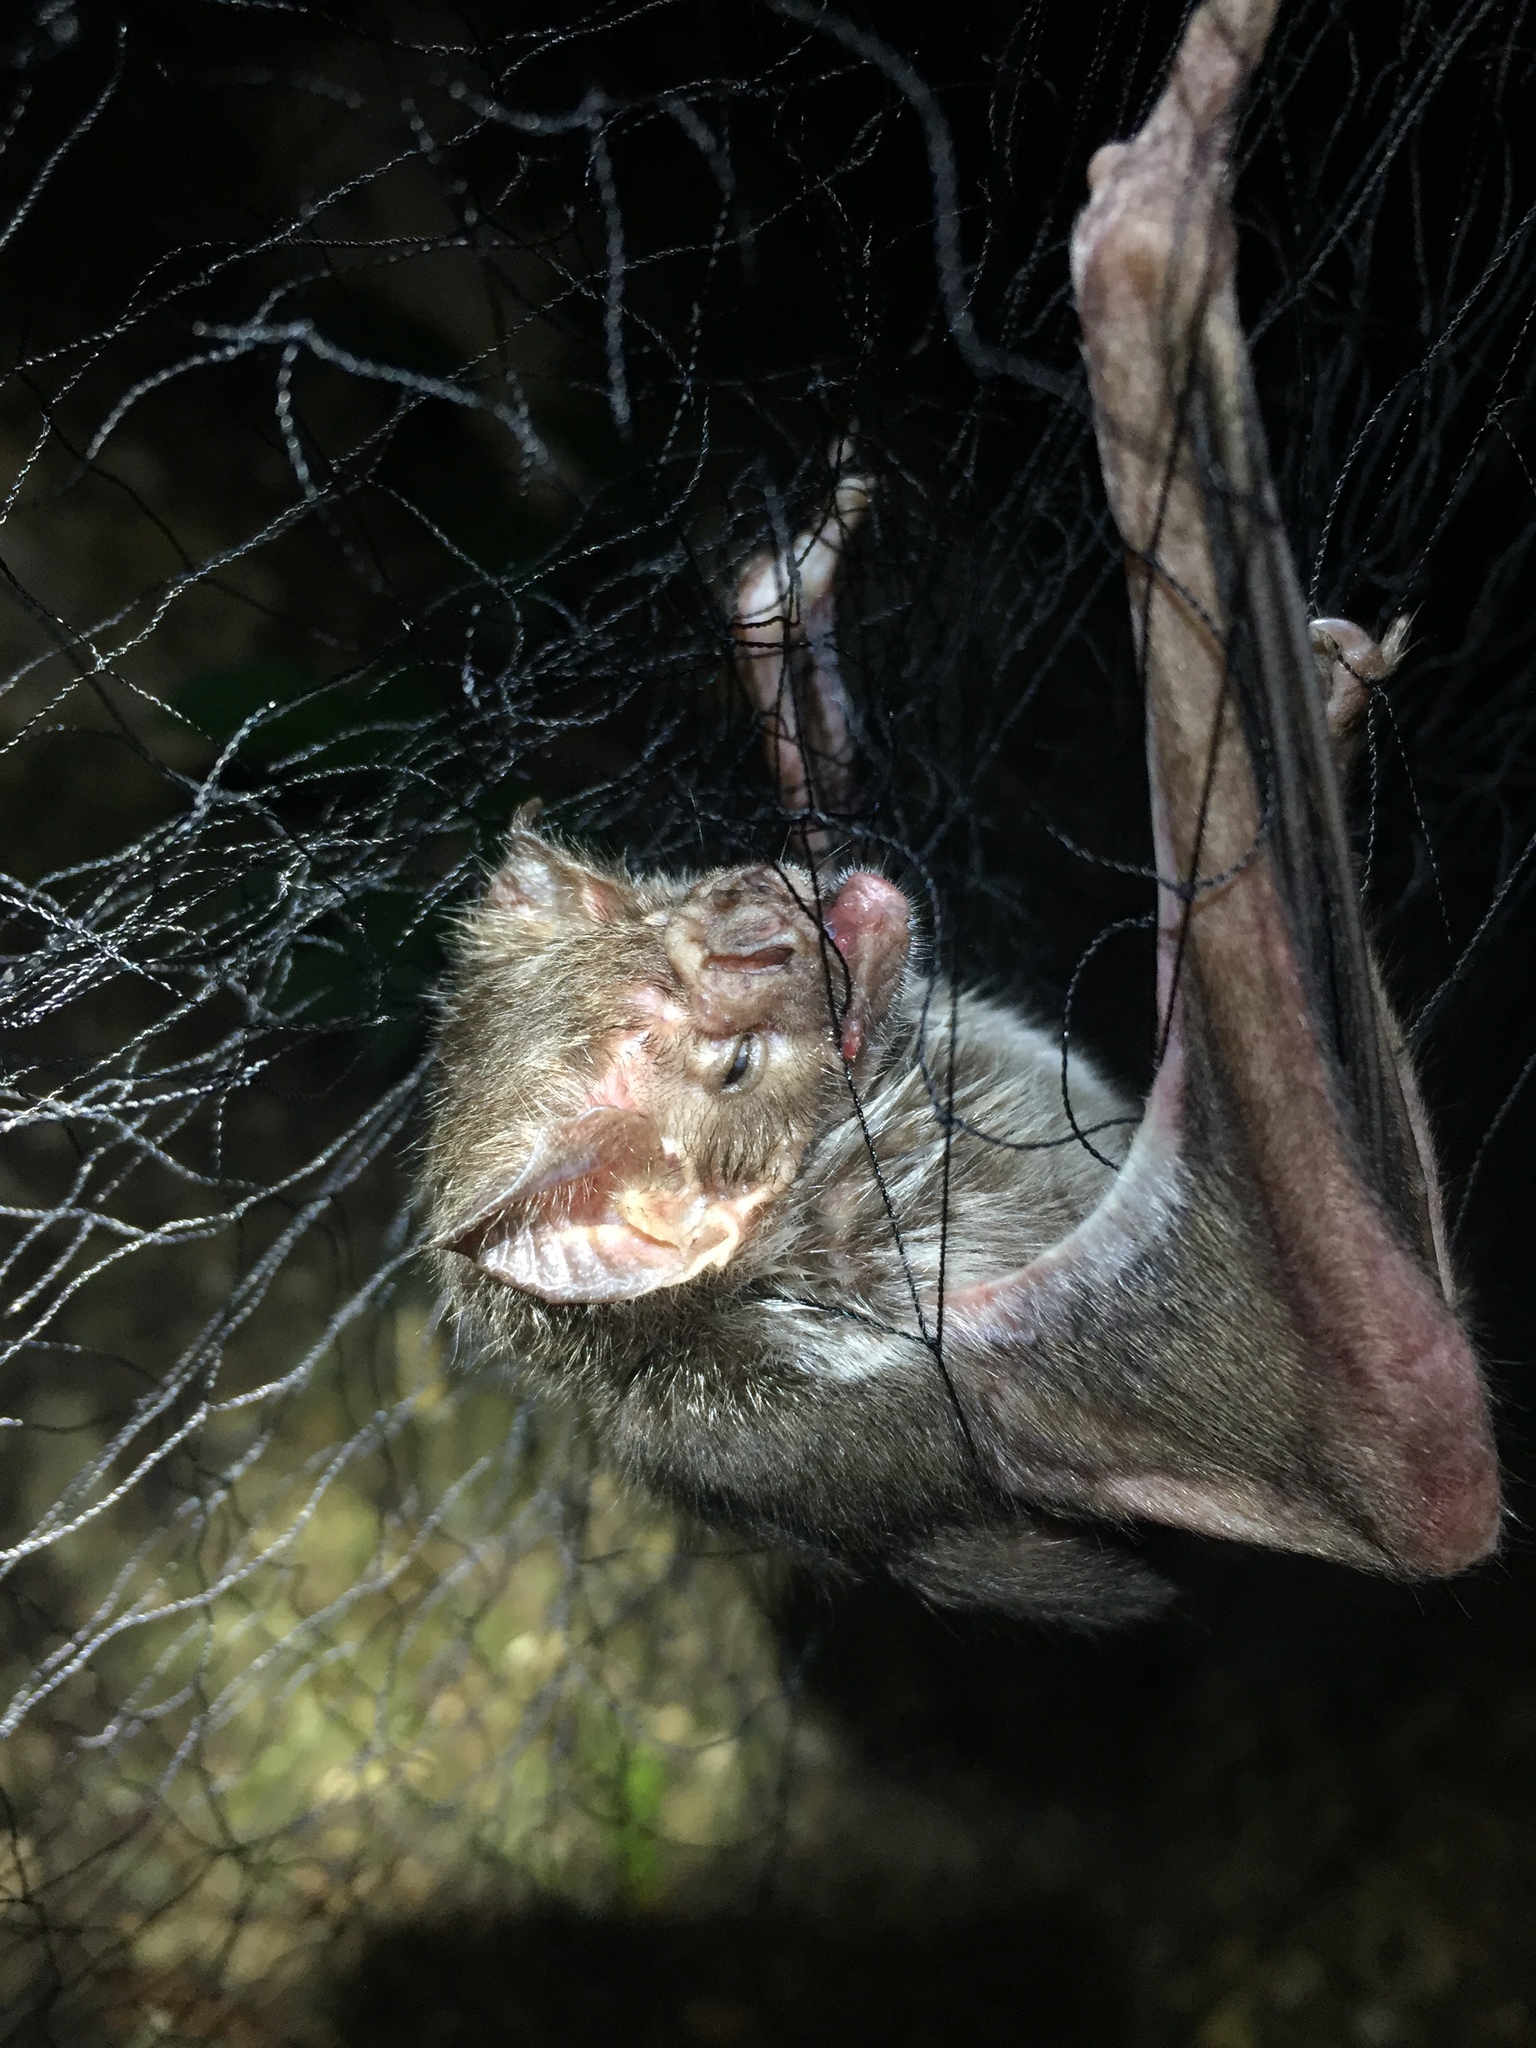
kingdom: Animalia
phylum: Chordata
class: Mammalia
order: Chiroptera
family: Phyllostomidae
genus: Desmodus
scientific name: Desmodus rotundus
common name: Common vampire bat
